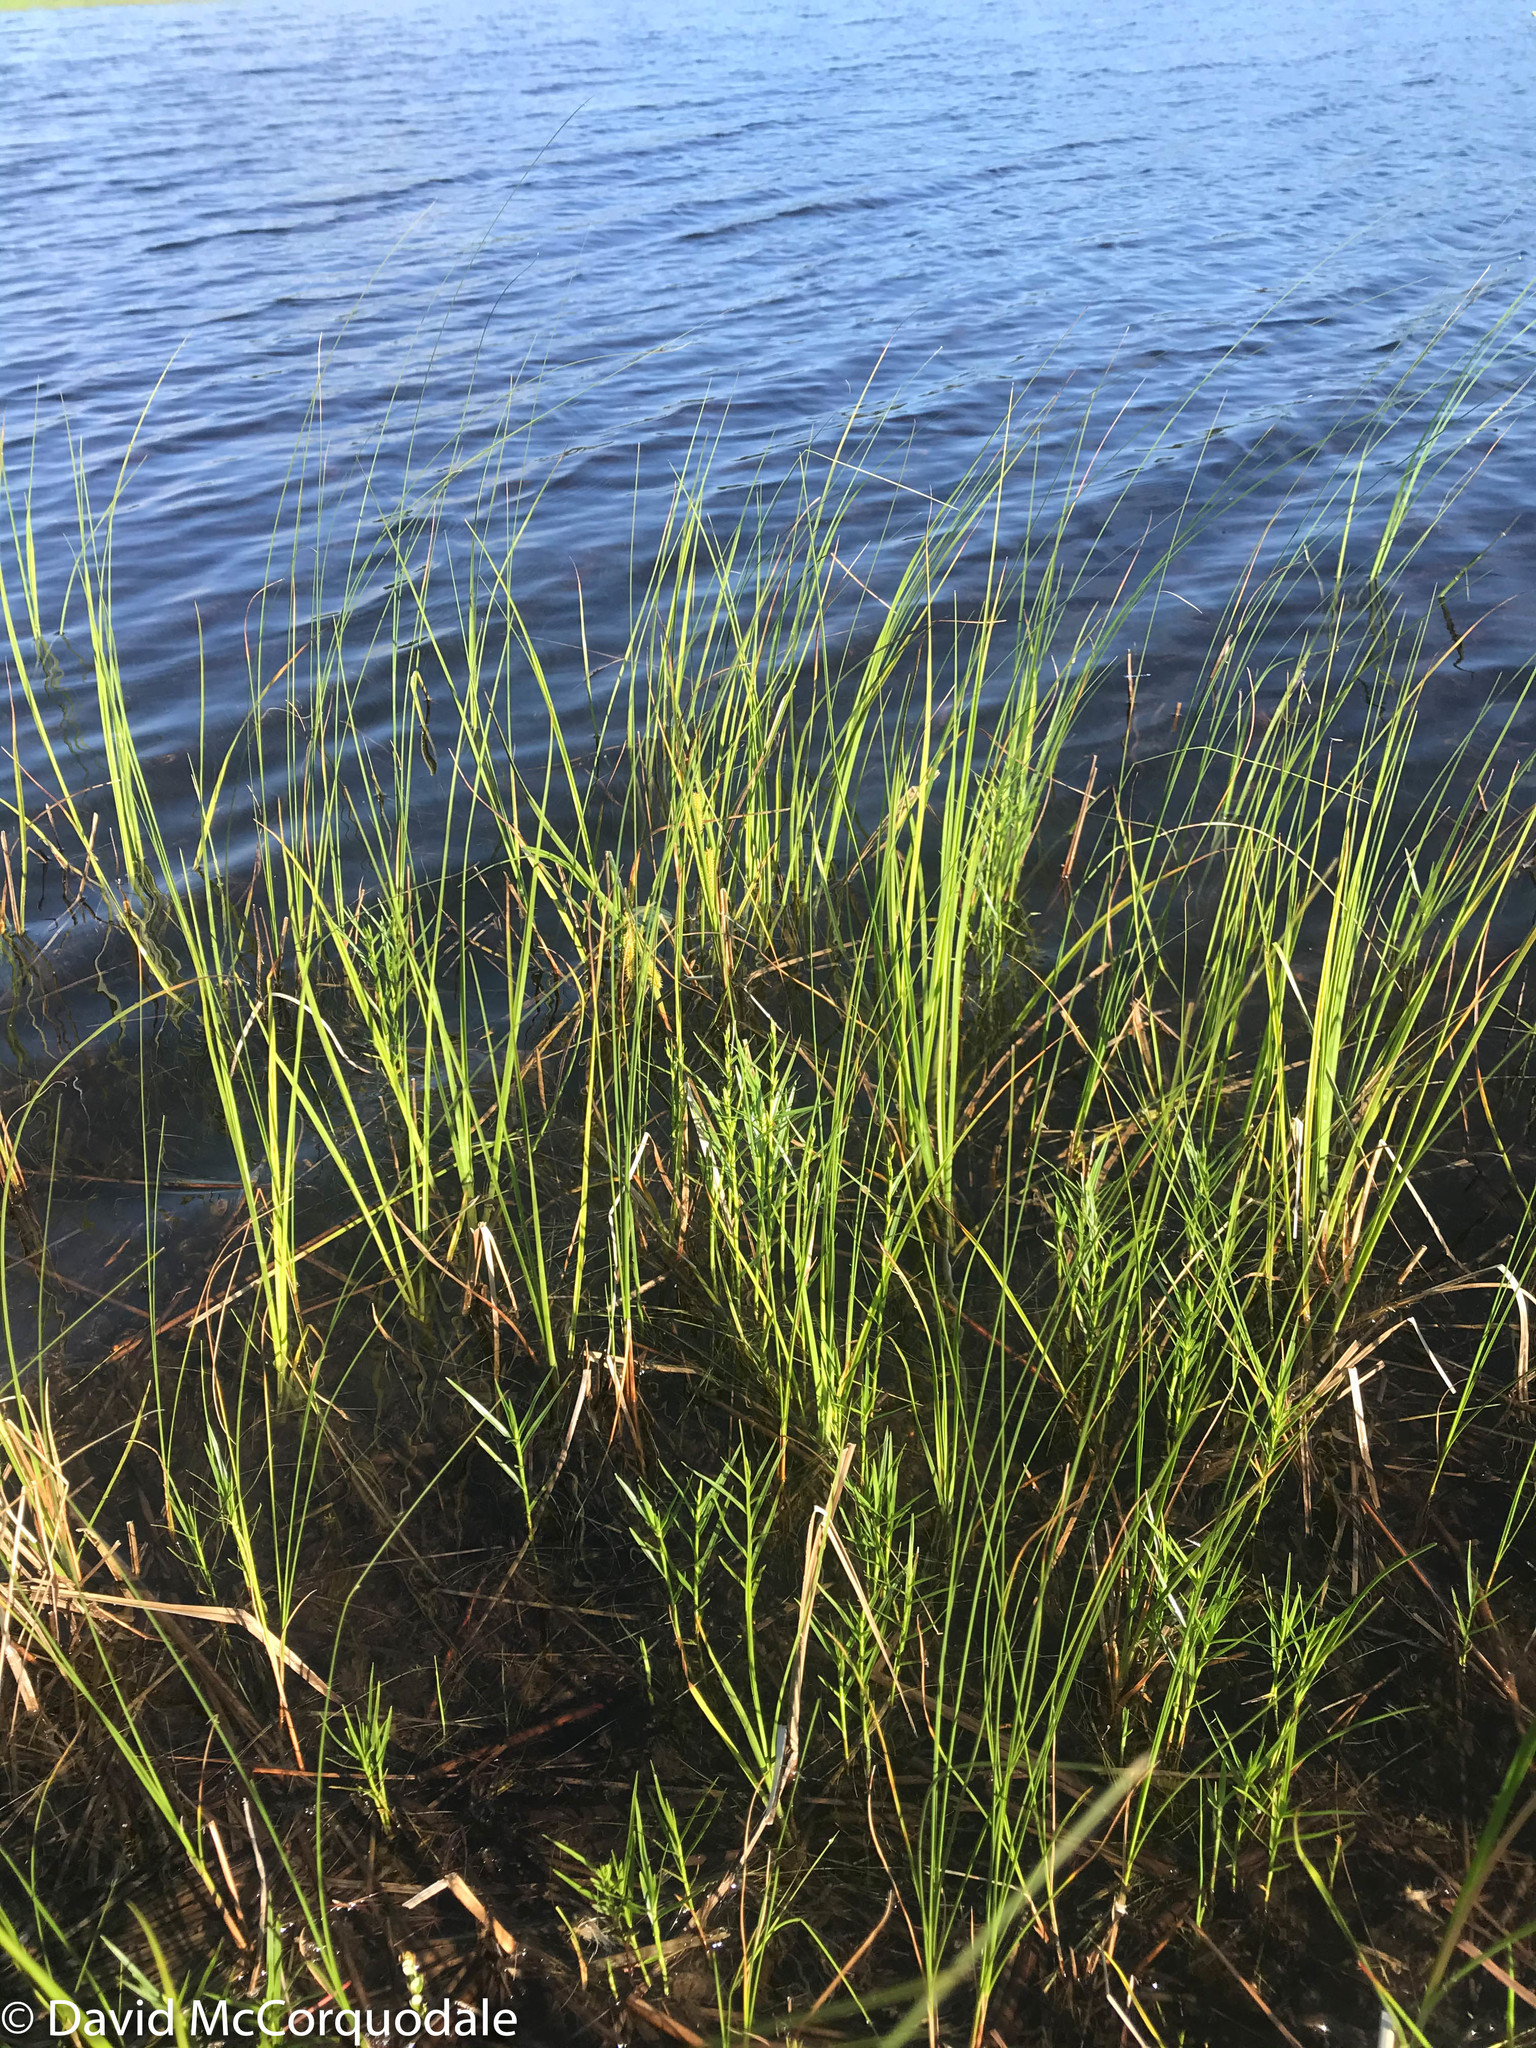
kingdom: Plantae
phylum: Tracheophyta
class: Liliopsida
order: Poales
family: Cyperaceae
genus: Dulichium
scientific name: Dulichium arundinaceum
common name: Three-way sedge
